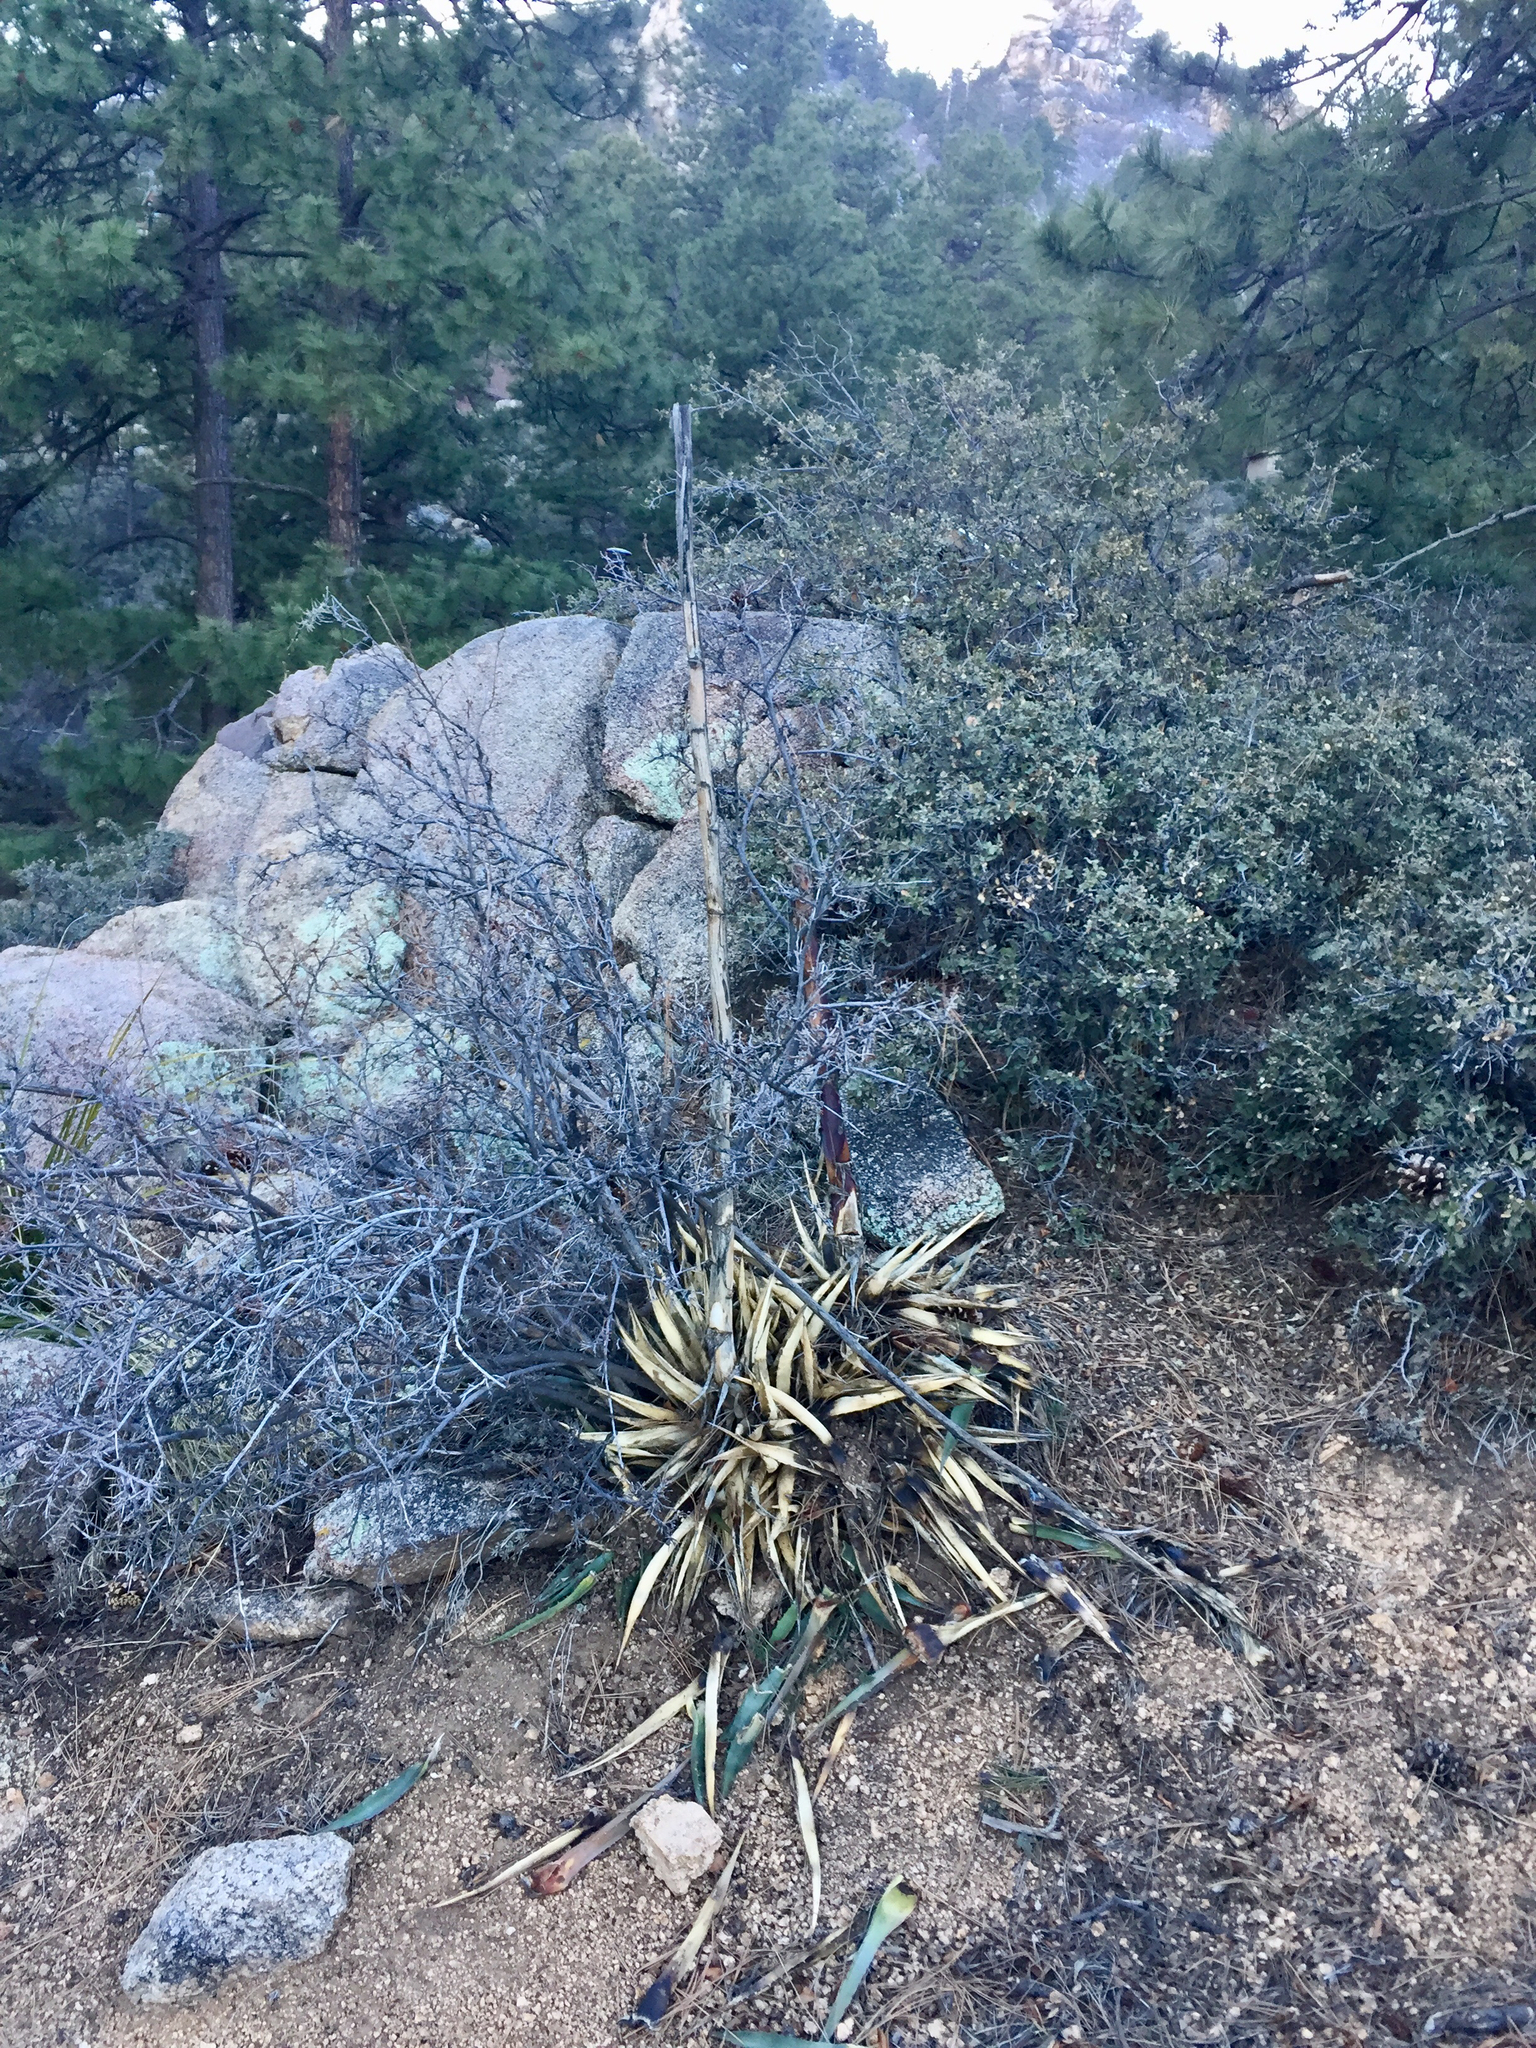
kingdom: Plantae
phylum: Tracheophyta
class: Liliopsida
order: Asparagales
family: Asparagaceae
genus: Agave
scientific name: Agave mckelveyana
